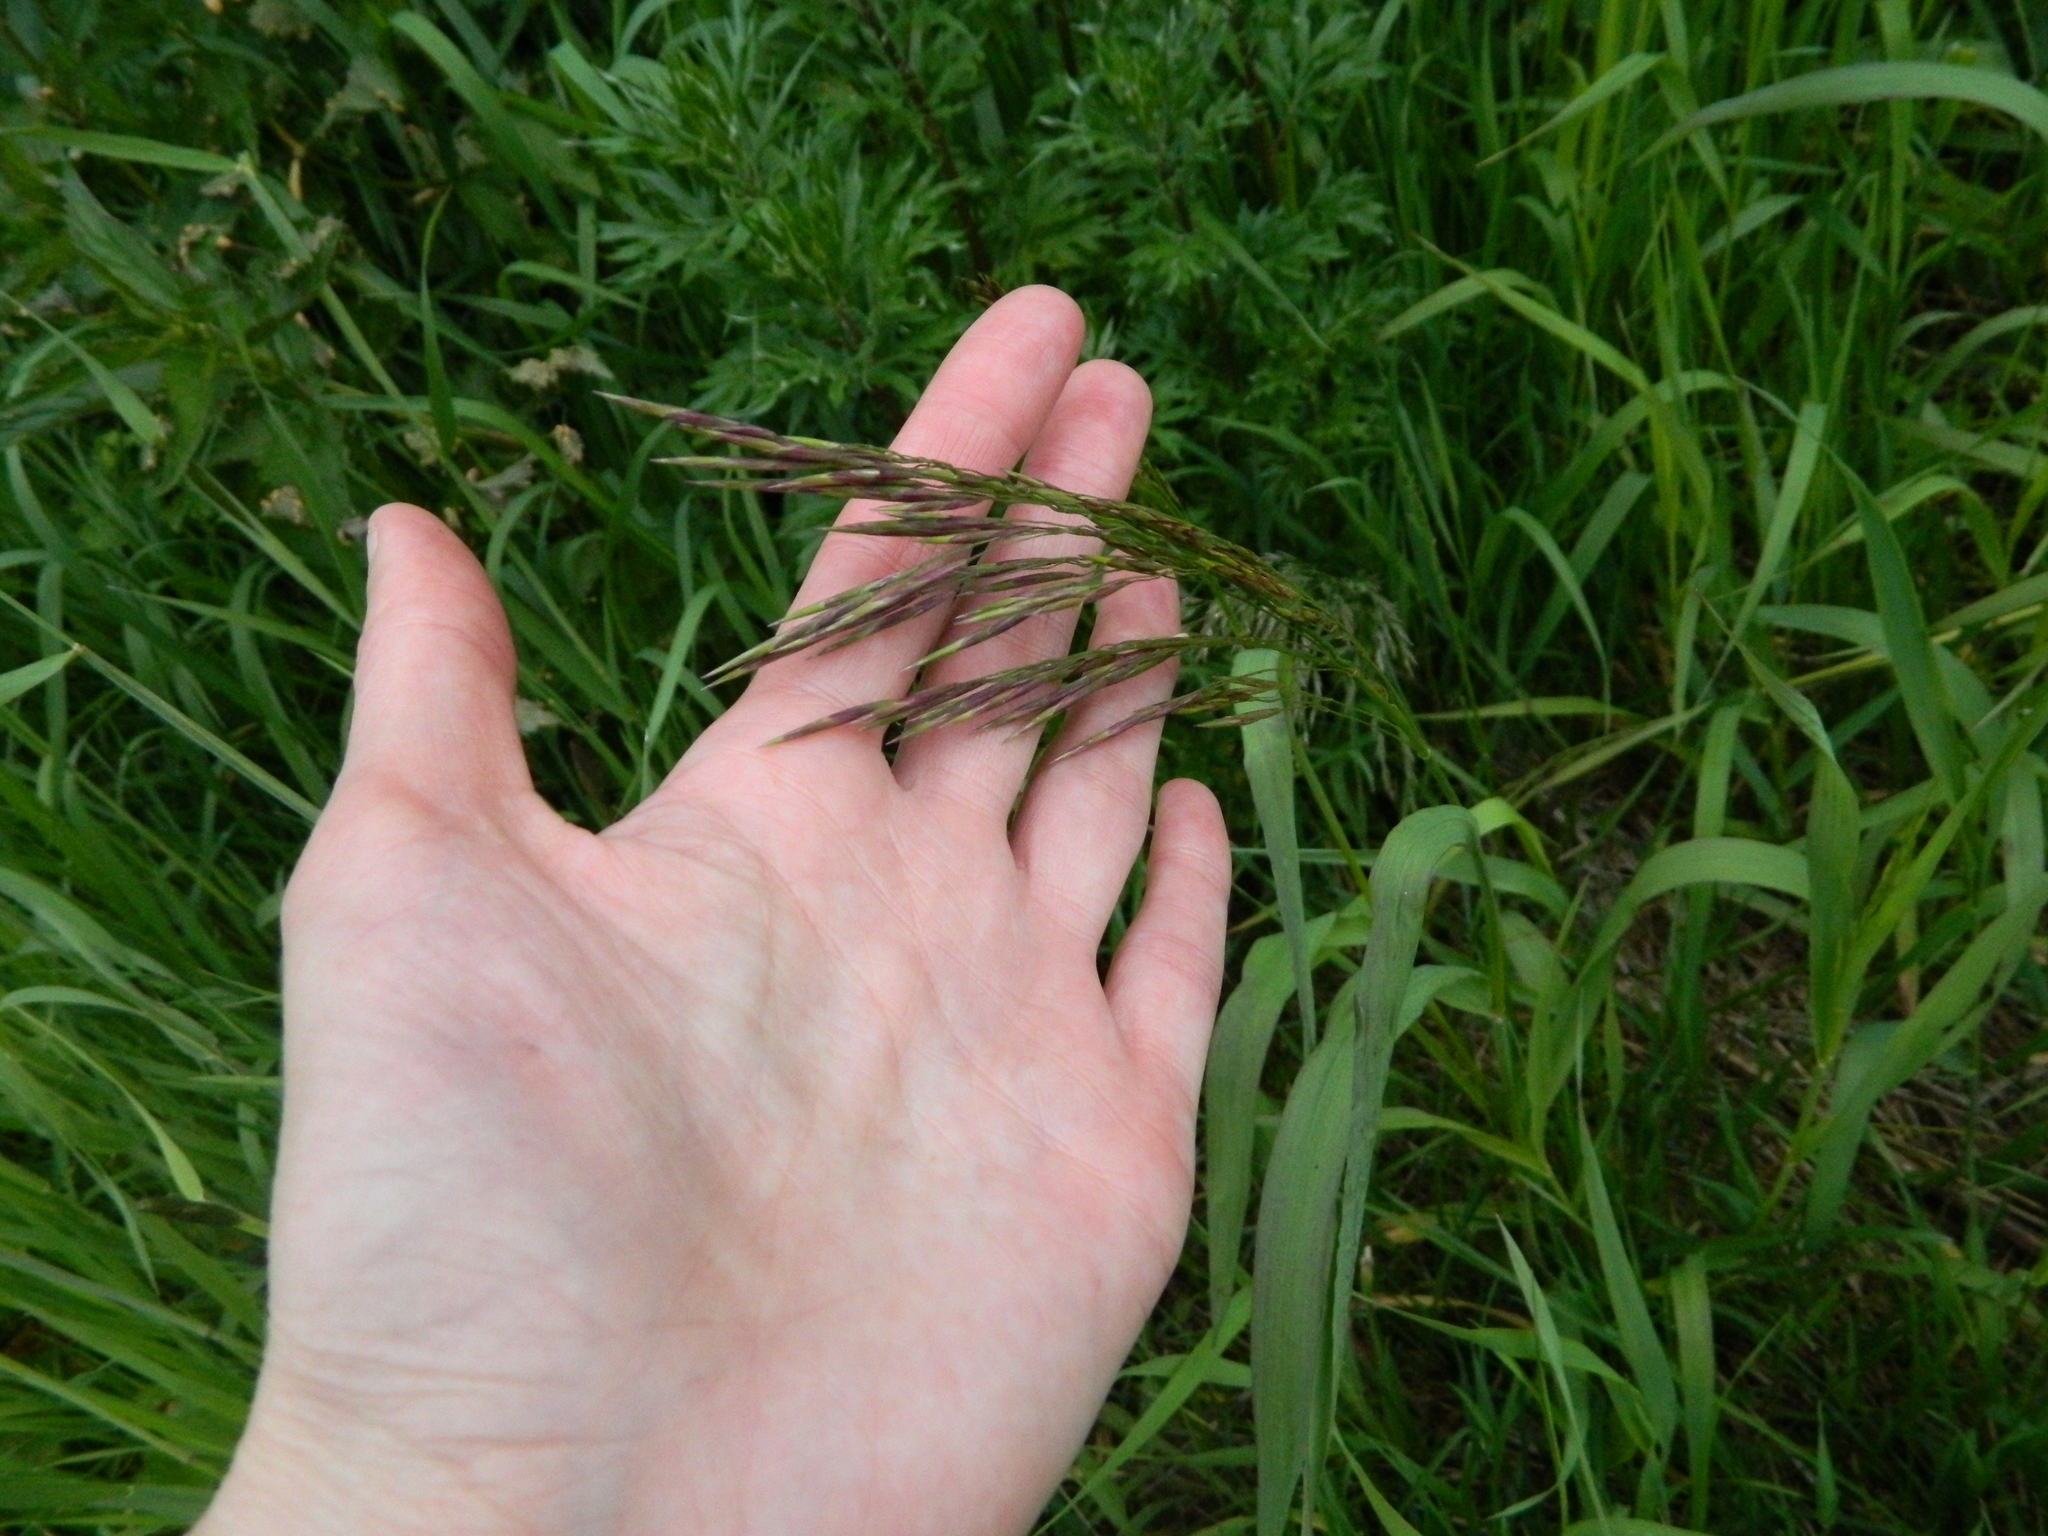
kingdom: Plantae
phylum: Tracheophyta
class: Liliopsida
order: Poales
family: Poaceae
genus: Bromus
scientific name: Bromus inermis
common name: Smooth brome
